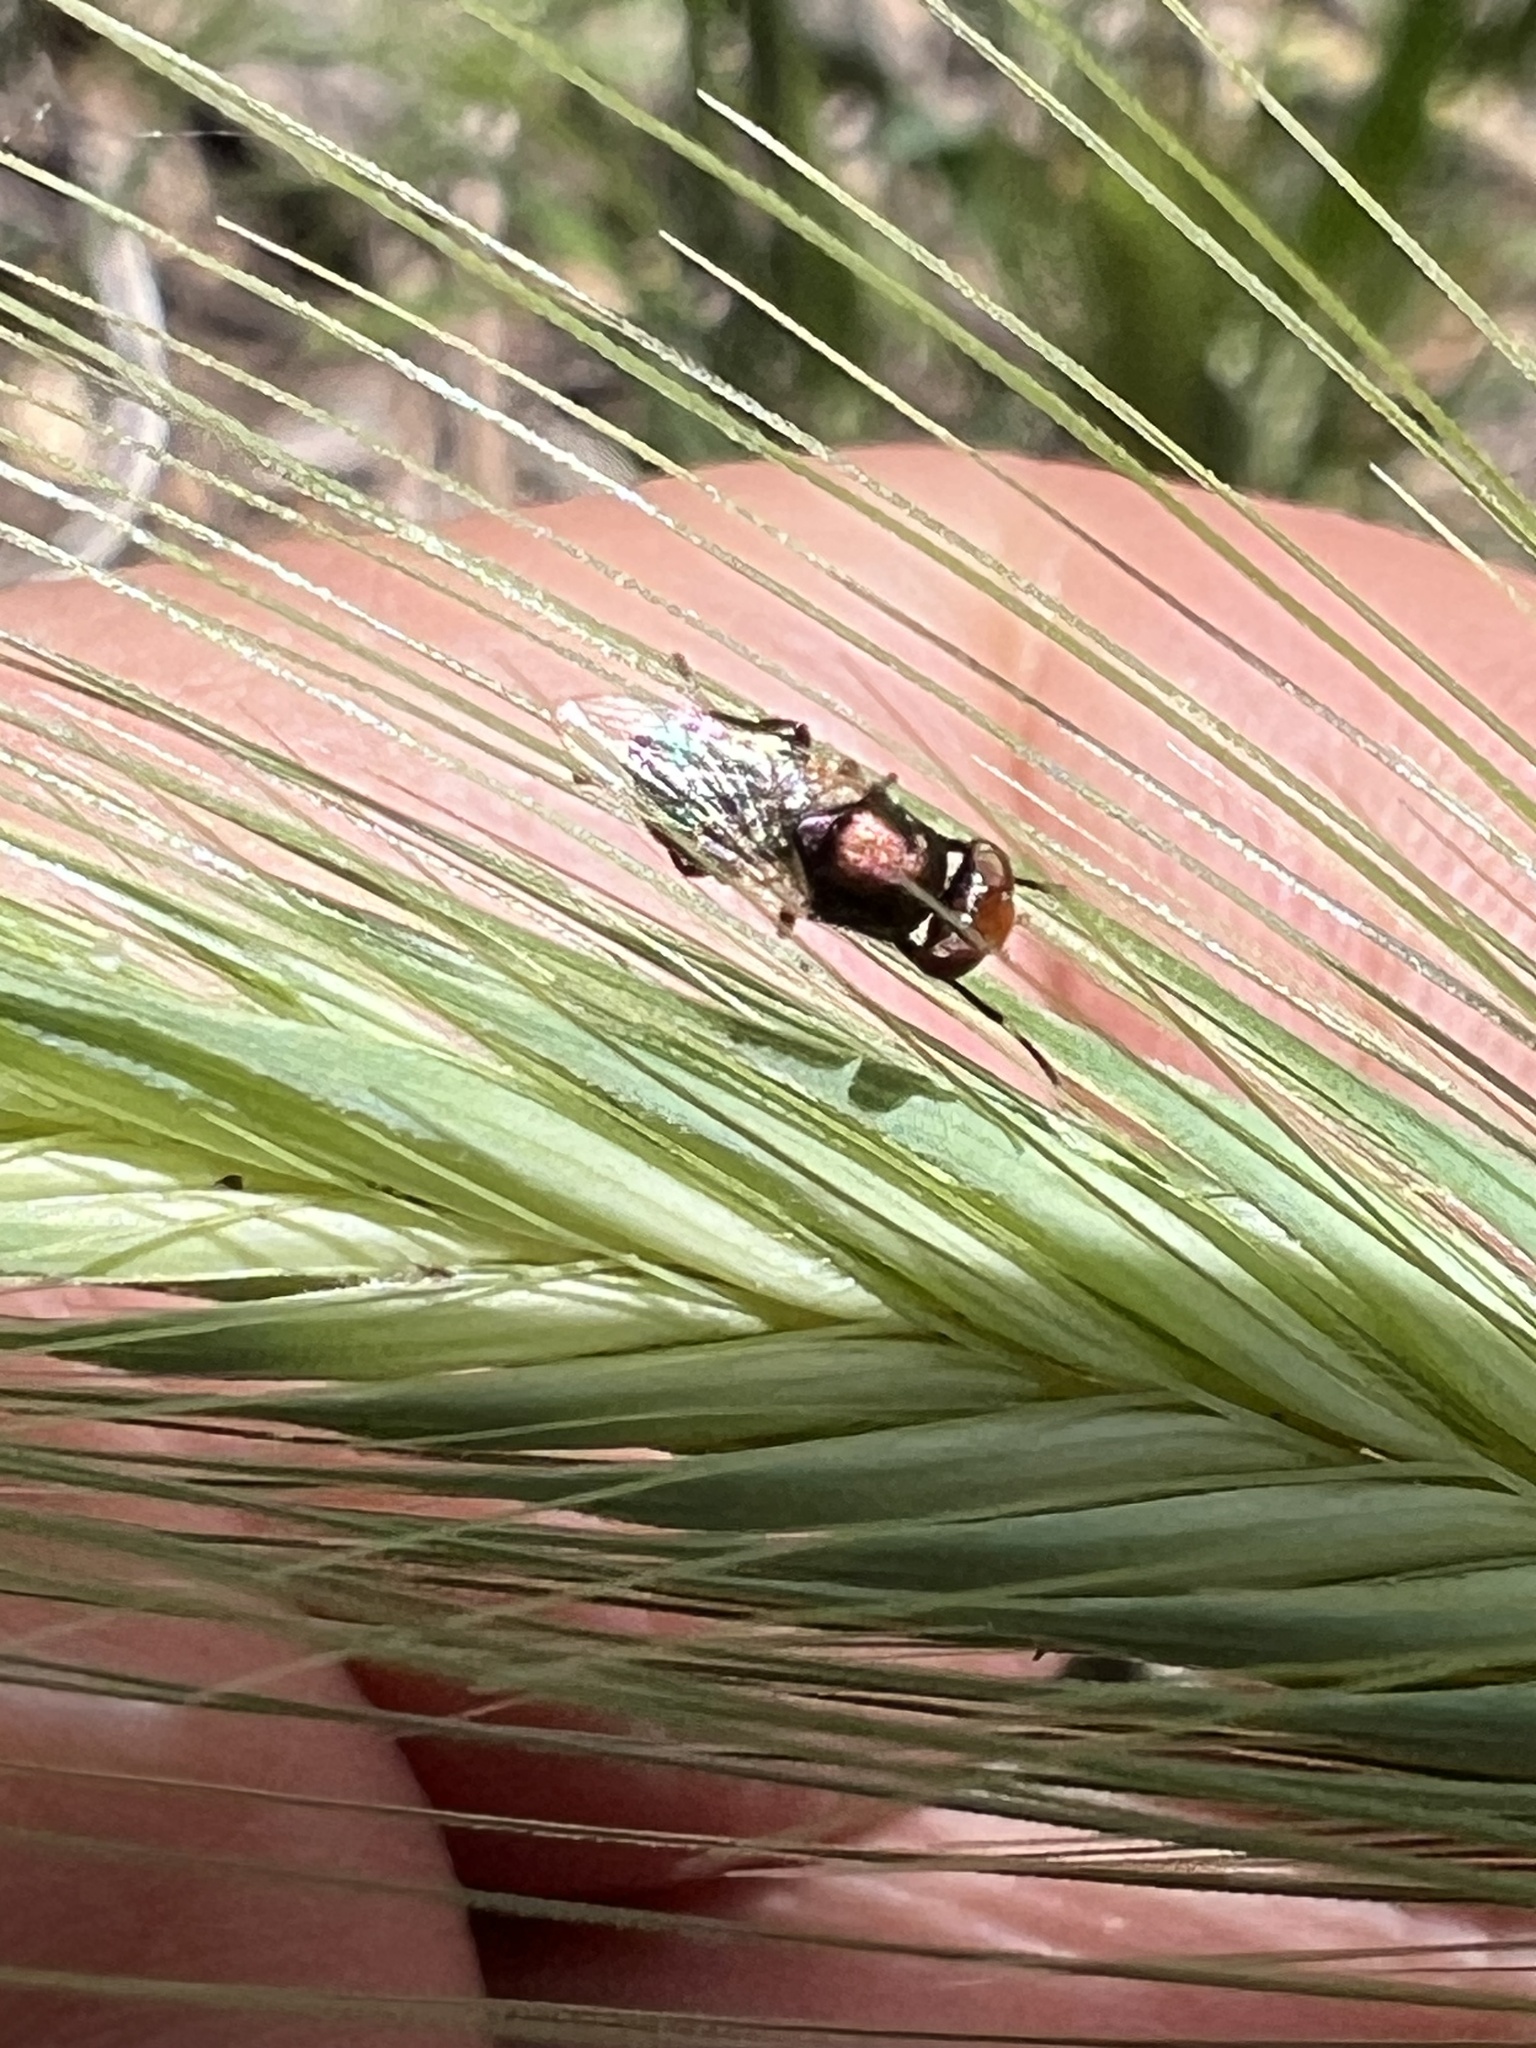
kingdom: Animalia
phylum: Arthropoda
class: Insecta
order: Diptera
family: Ulidiidae
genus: Physiphora
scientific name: Physiphora alceae
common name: Picture-winged fly
